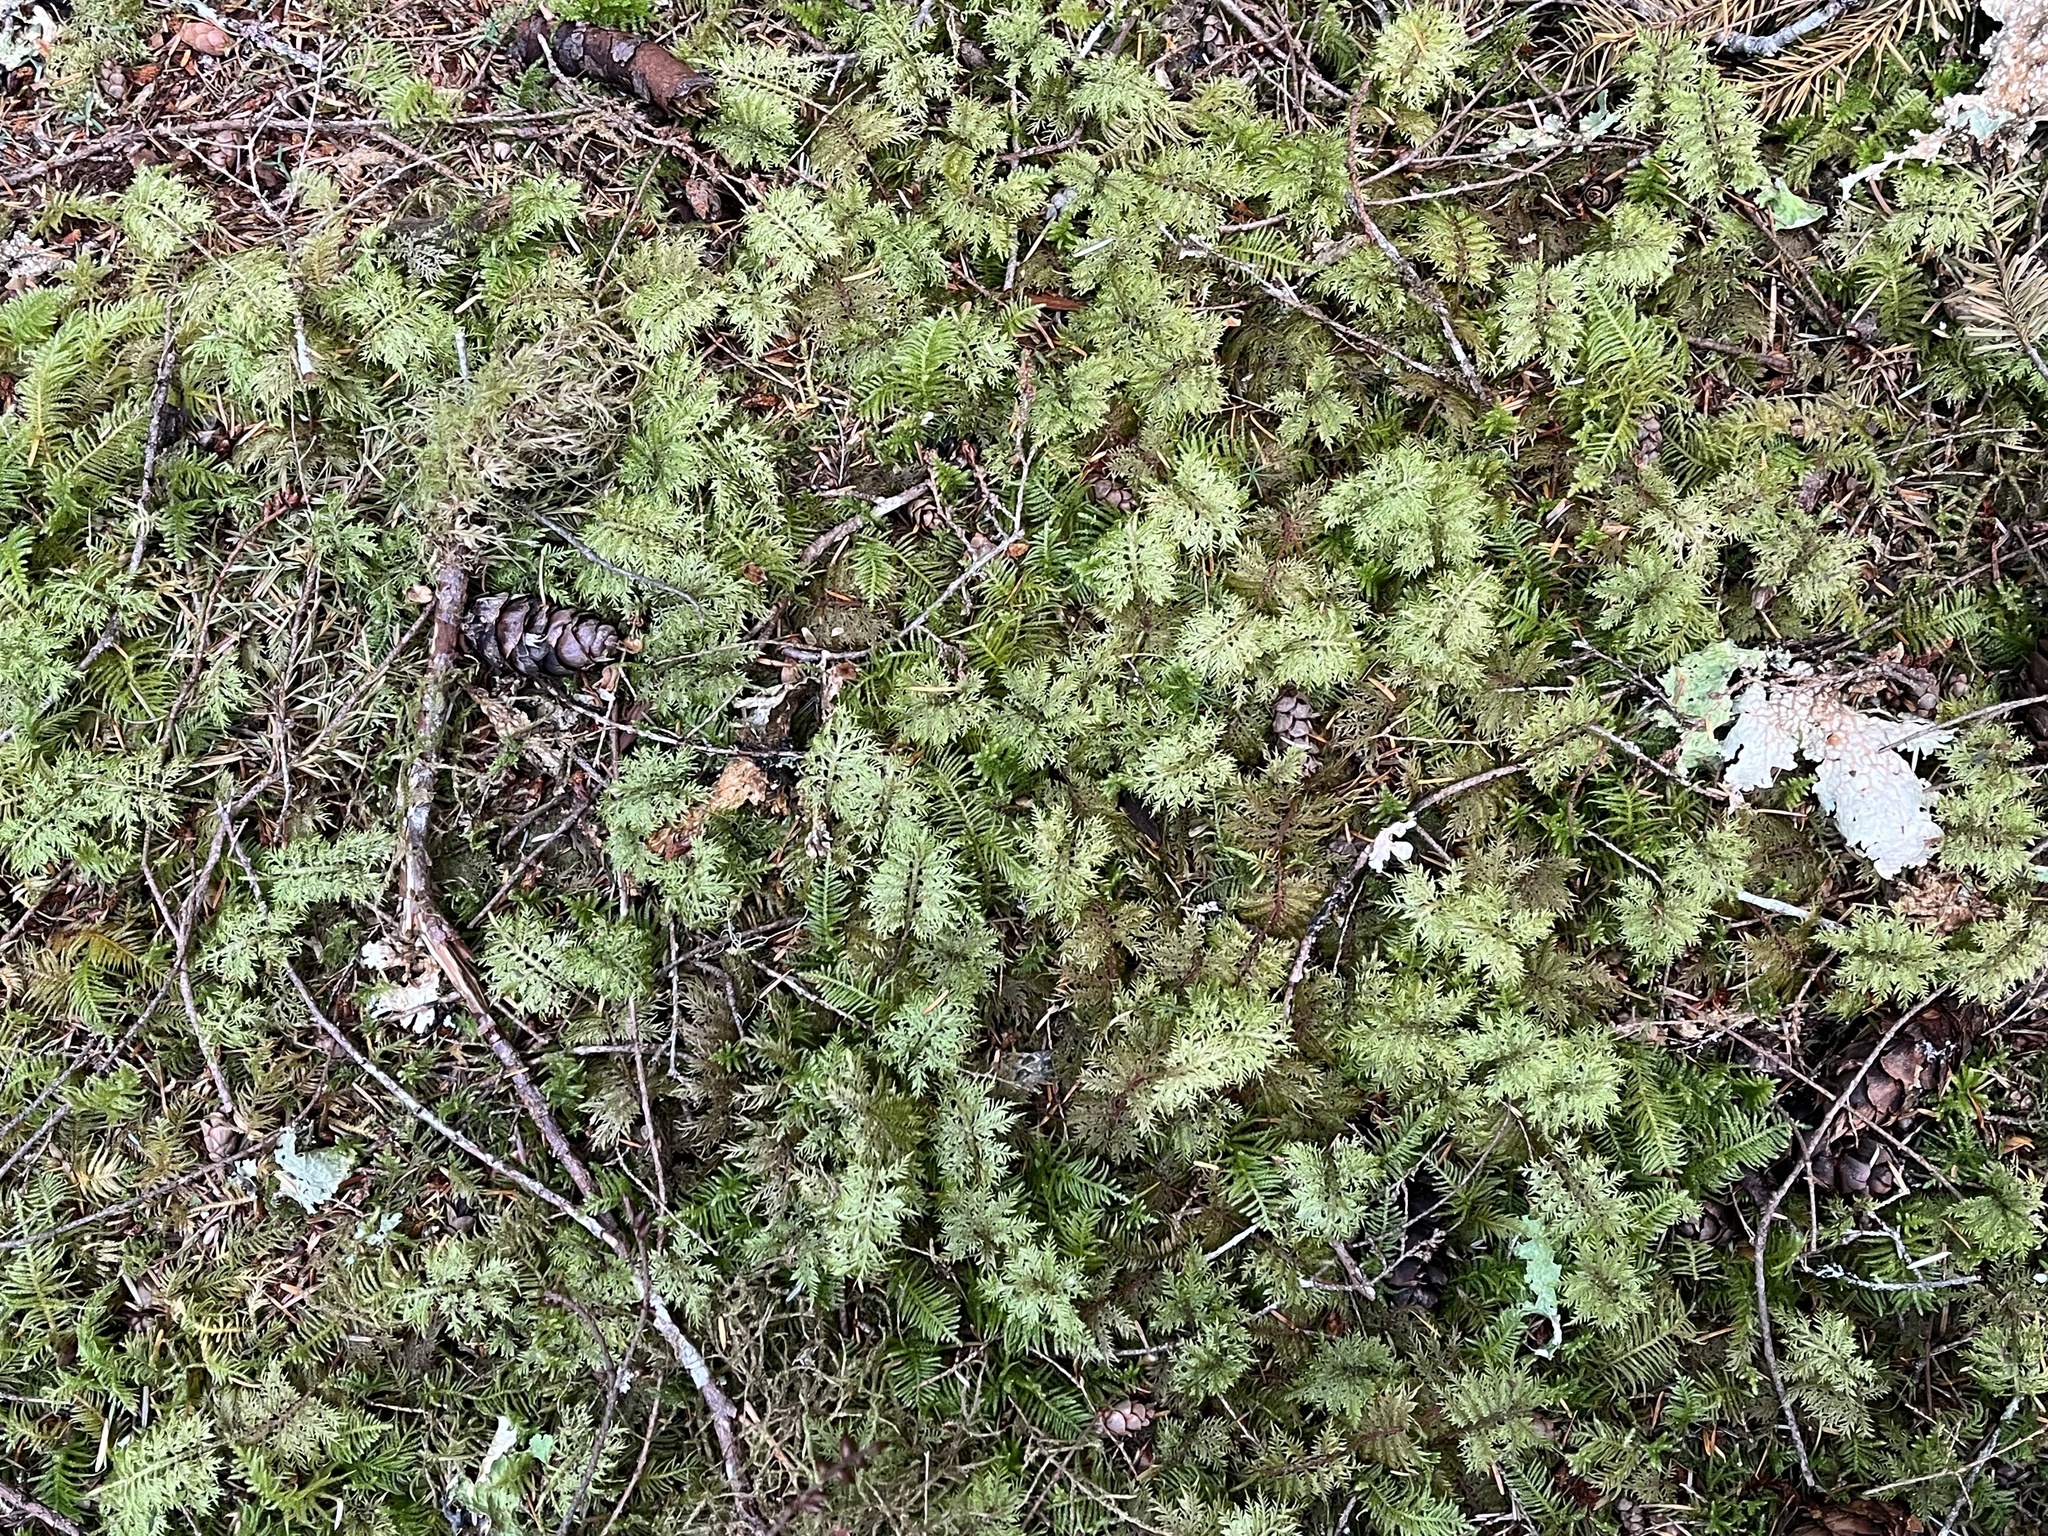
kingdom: Plantae
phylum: Bryophyta
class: Bryopsida
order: Hypnales
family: Hylocomiaceae
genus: Hylocomium
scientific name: Hylocomium splendens
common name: Stairstep moss
